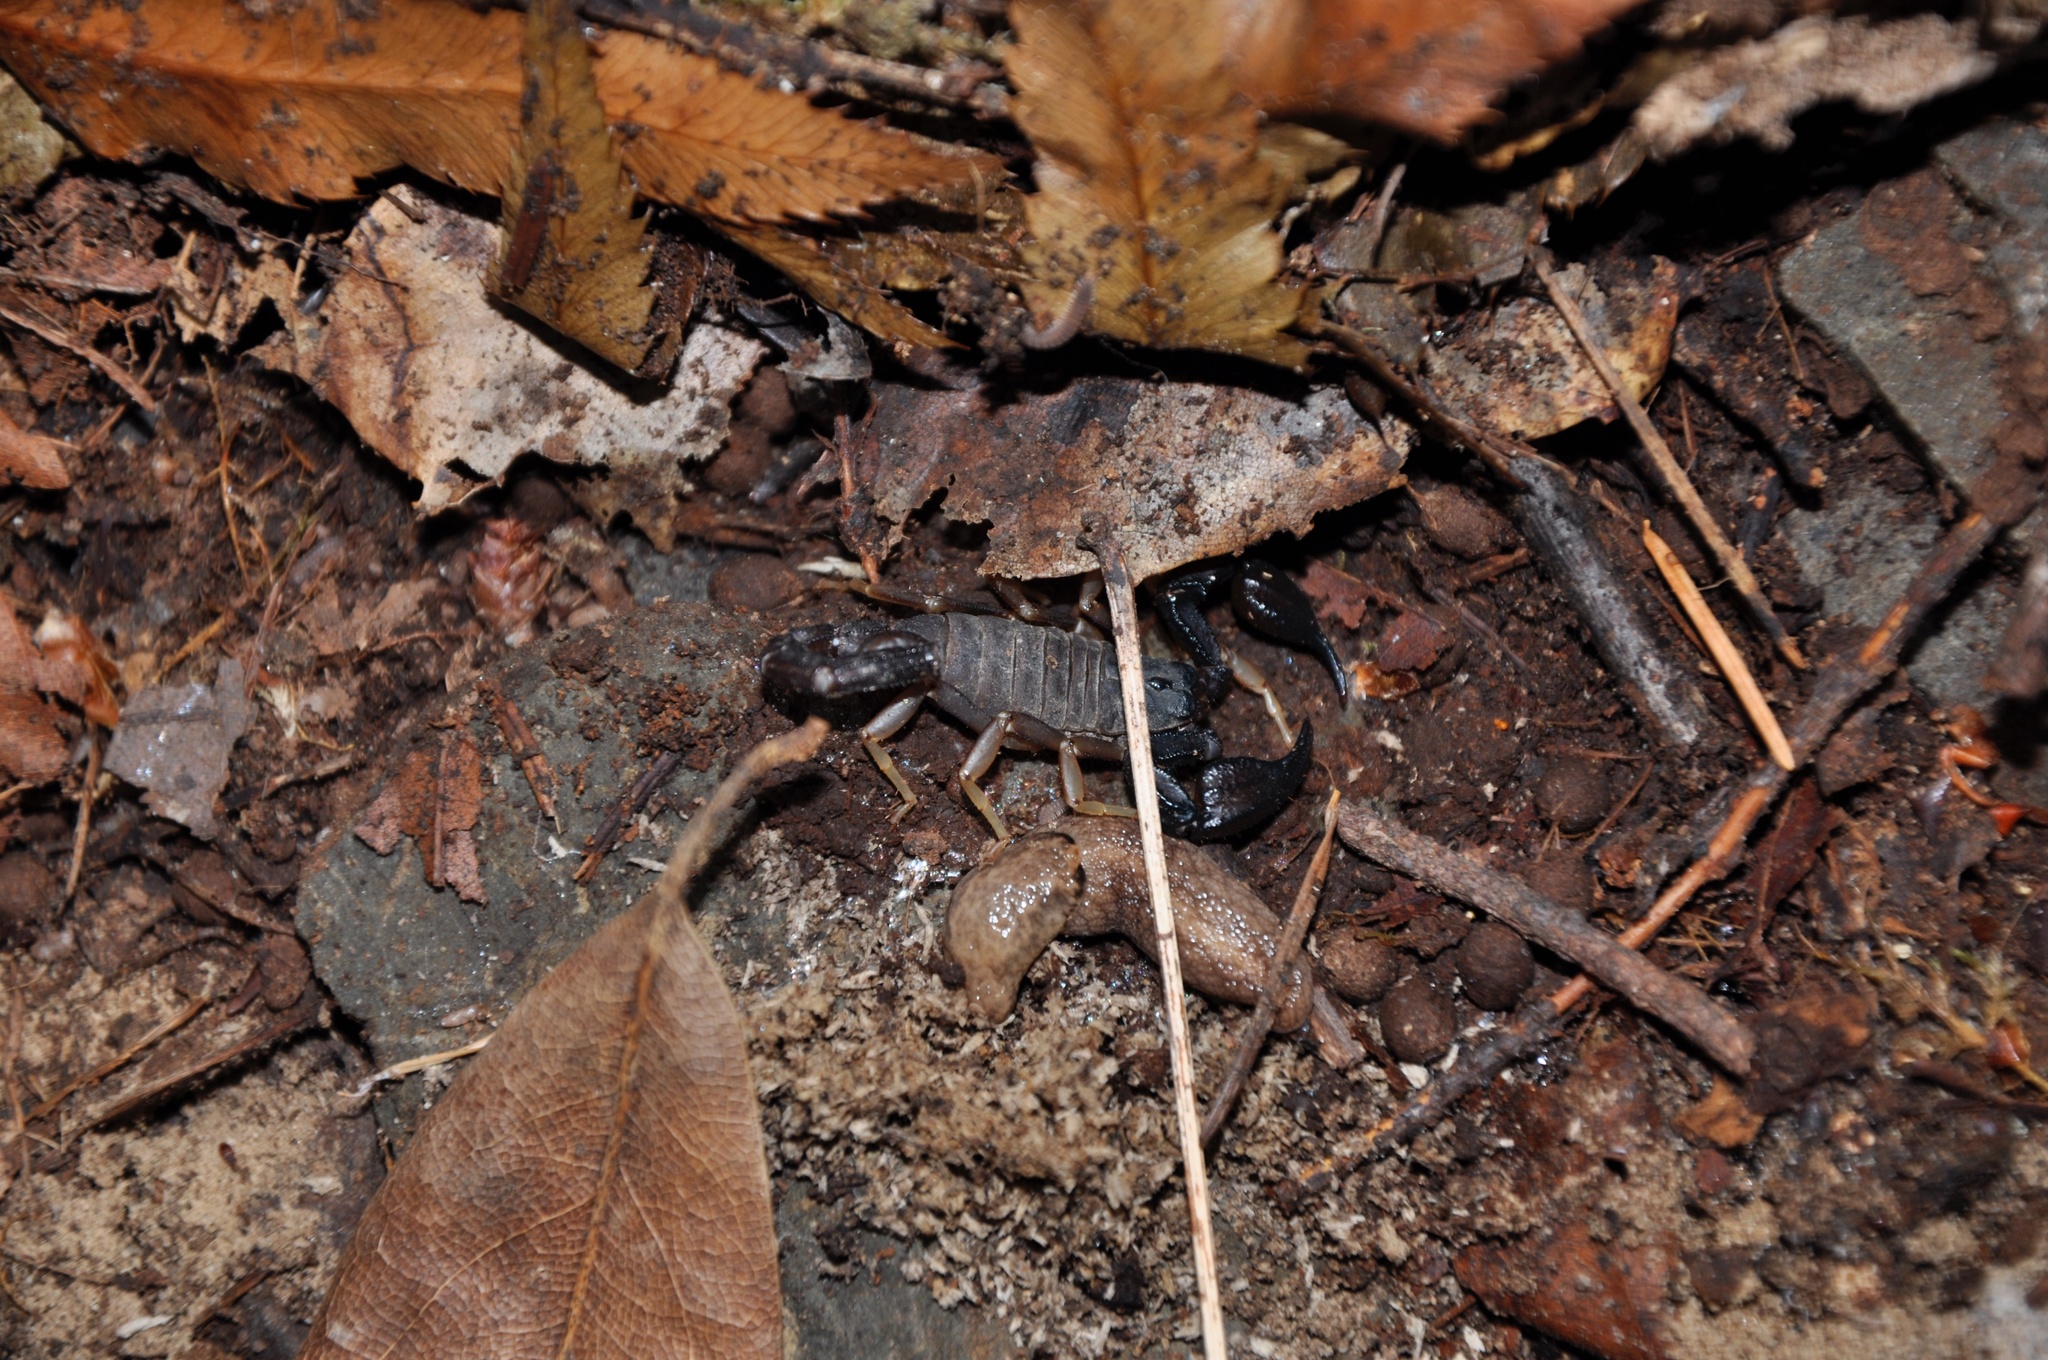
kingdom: Animalia
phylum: Arthropoda
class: Arachnida
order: Scorpiones
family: Chactidae
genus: Uroctonus
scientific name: Uroctonus mordax
